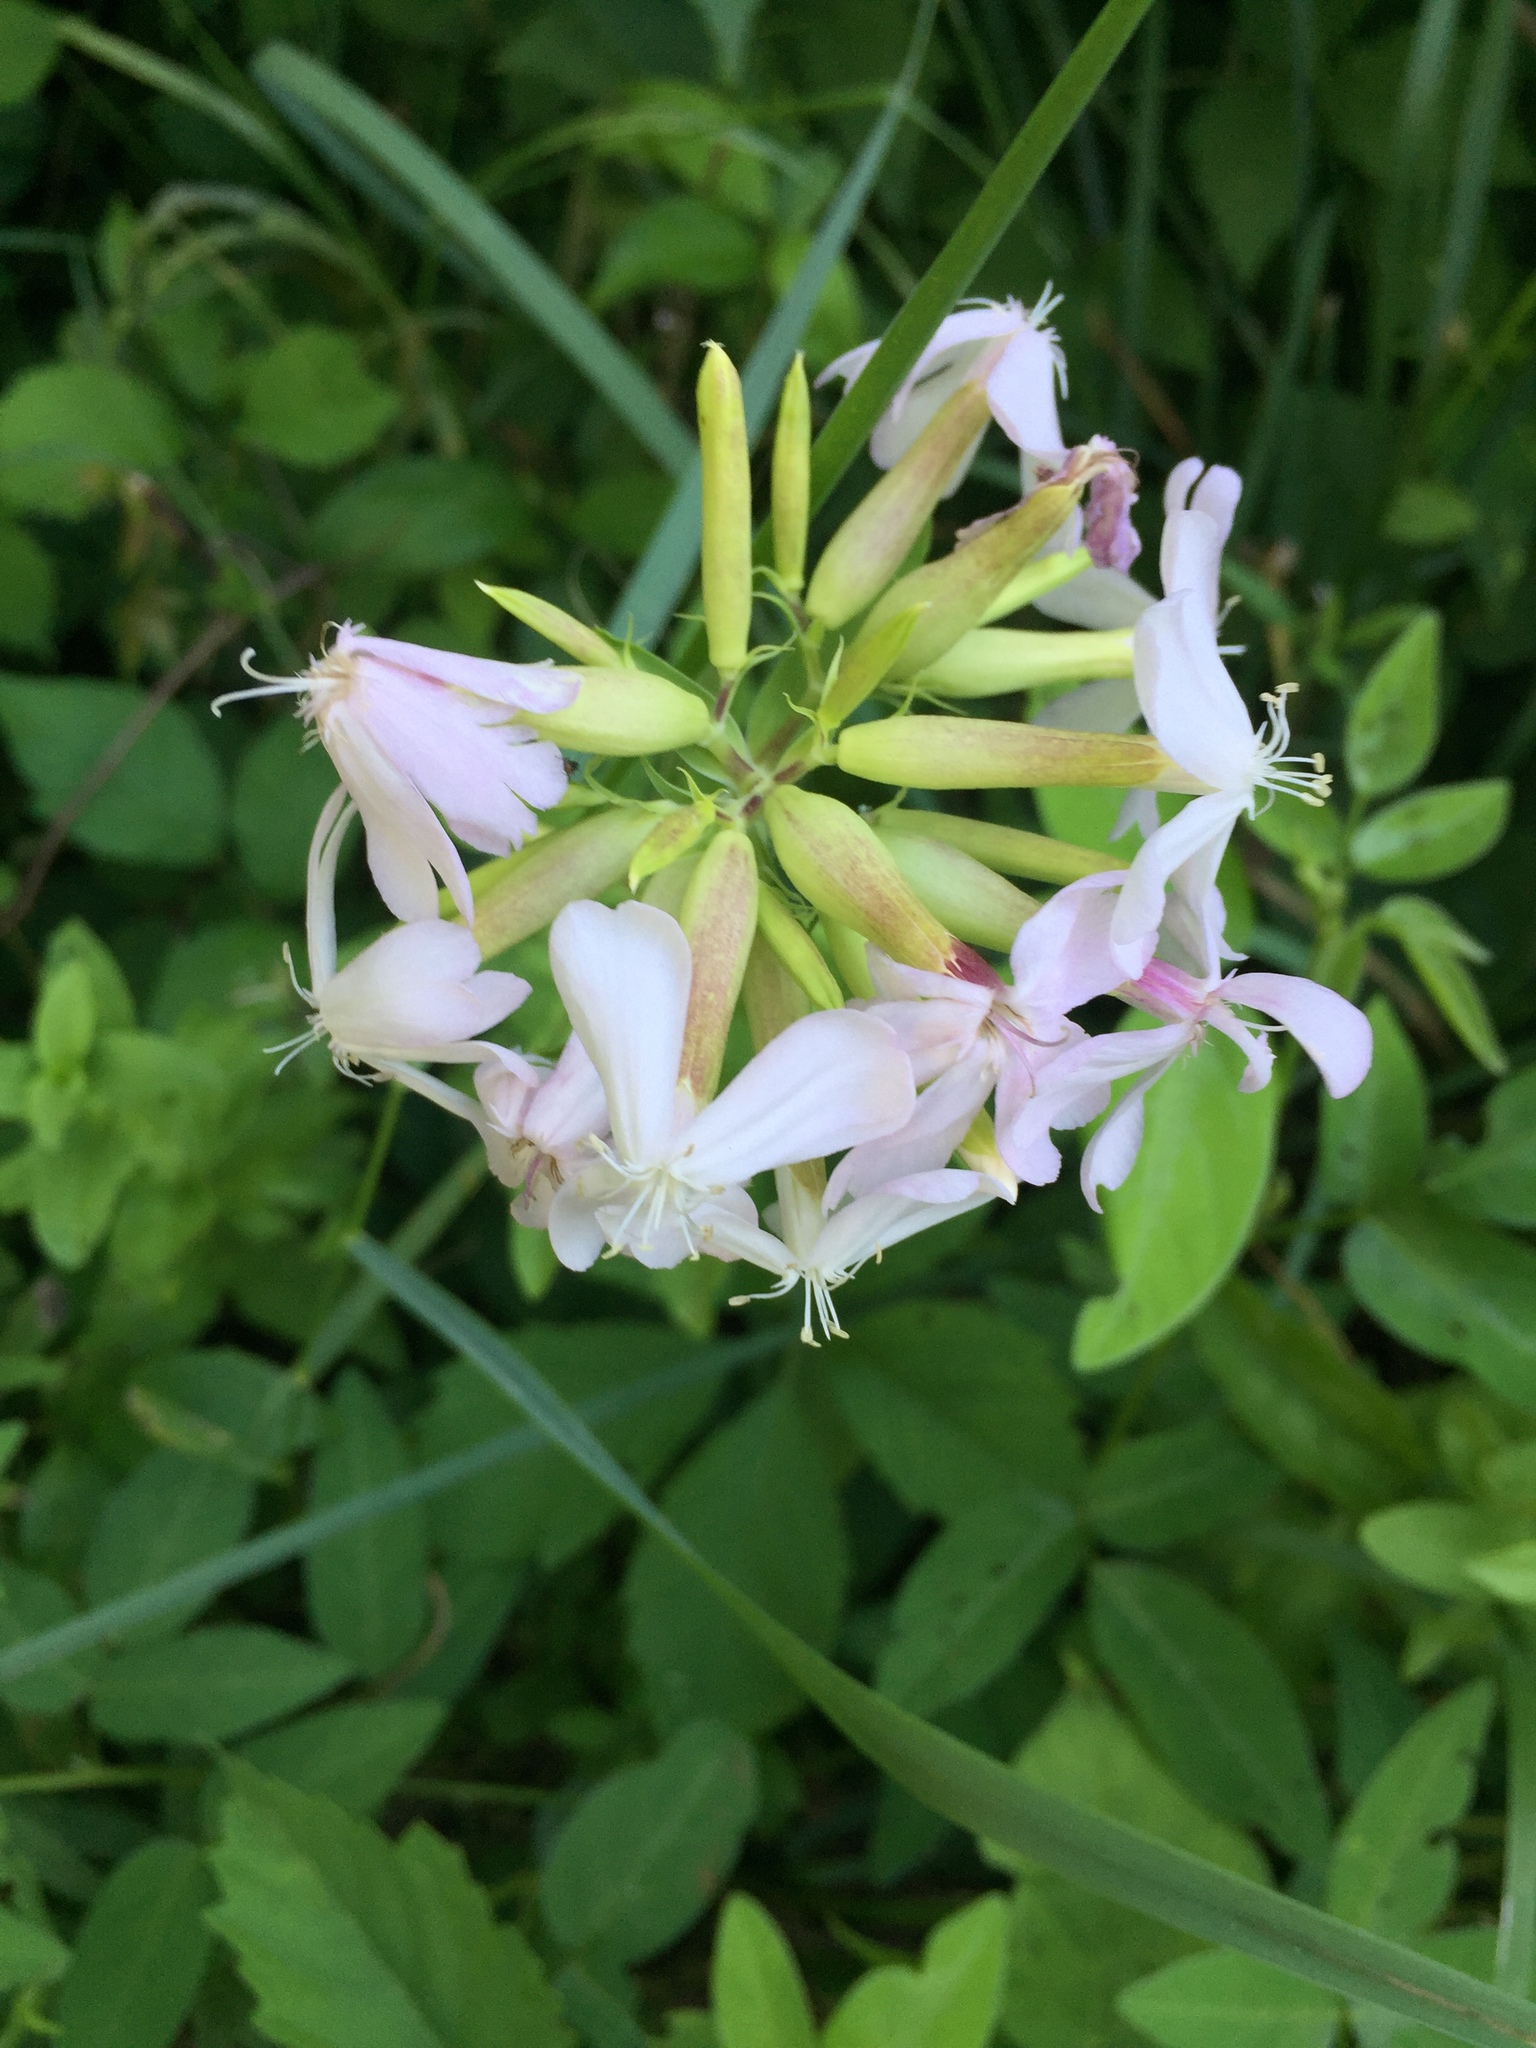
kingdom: Plantae
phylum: Tracheophyta
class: Magnoliopsida
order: Caryophyllales
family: Caryophyllaceae
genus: Saponaria
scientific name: Saponaria officinalis
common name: Soapwort
